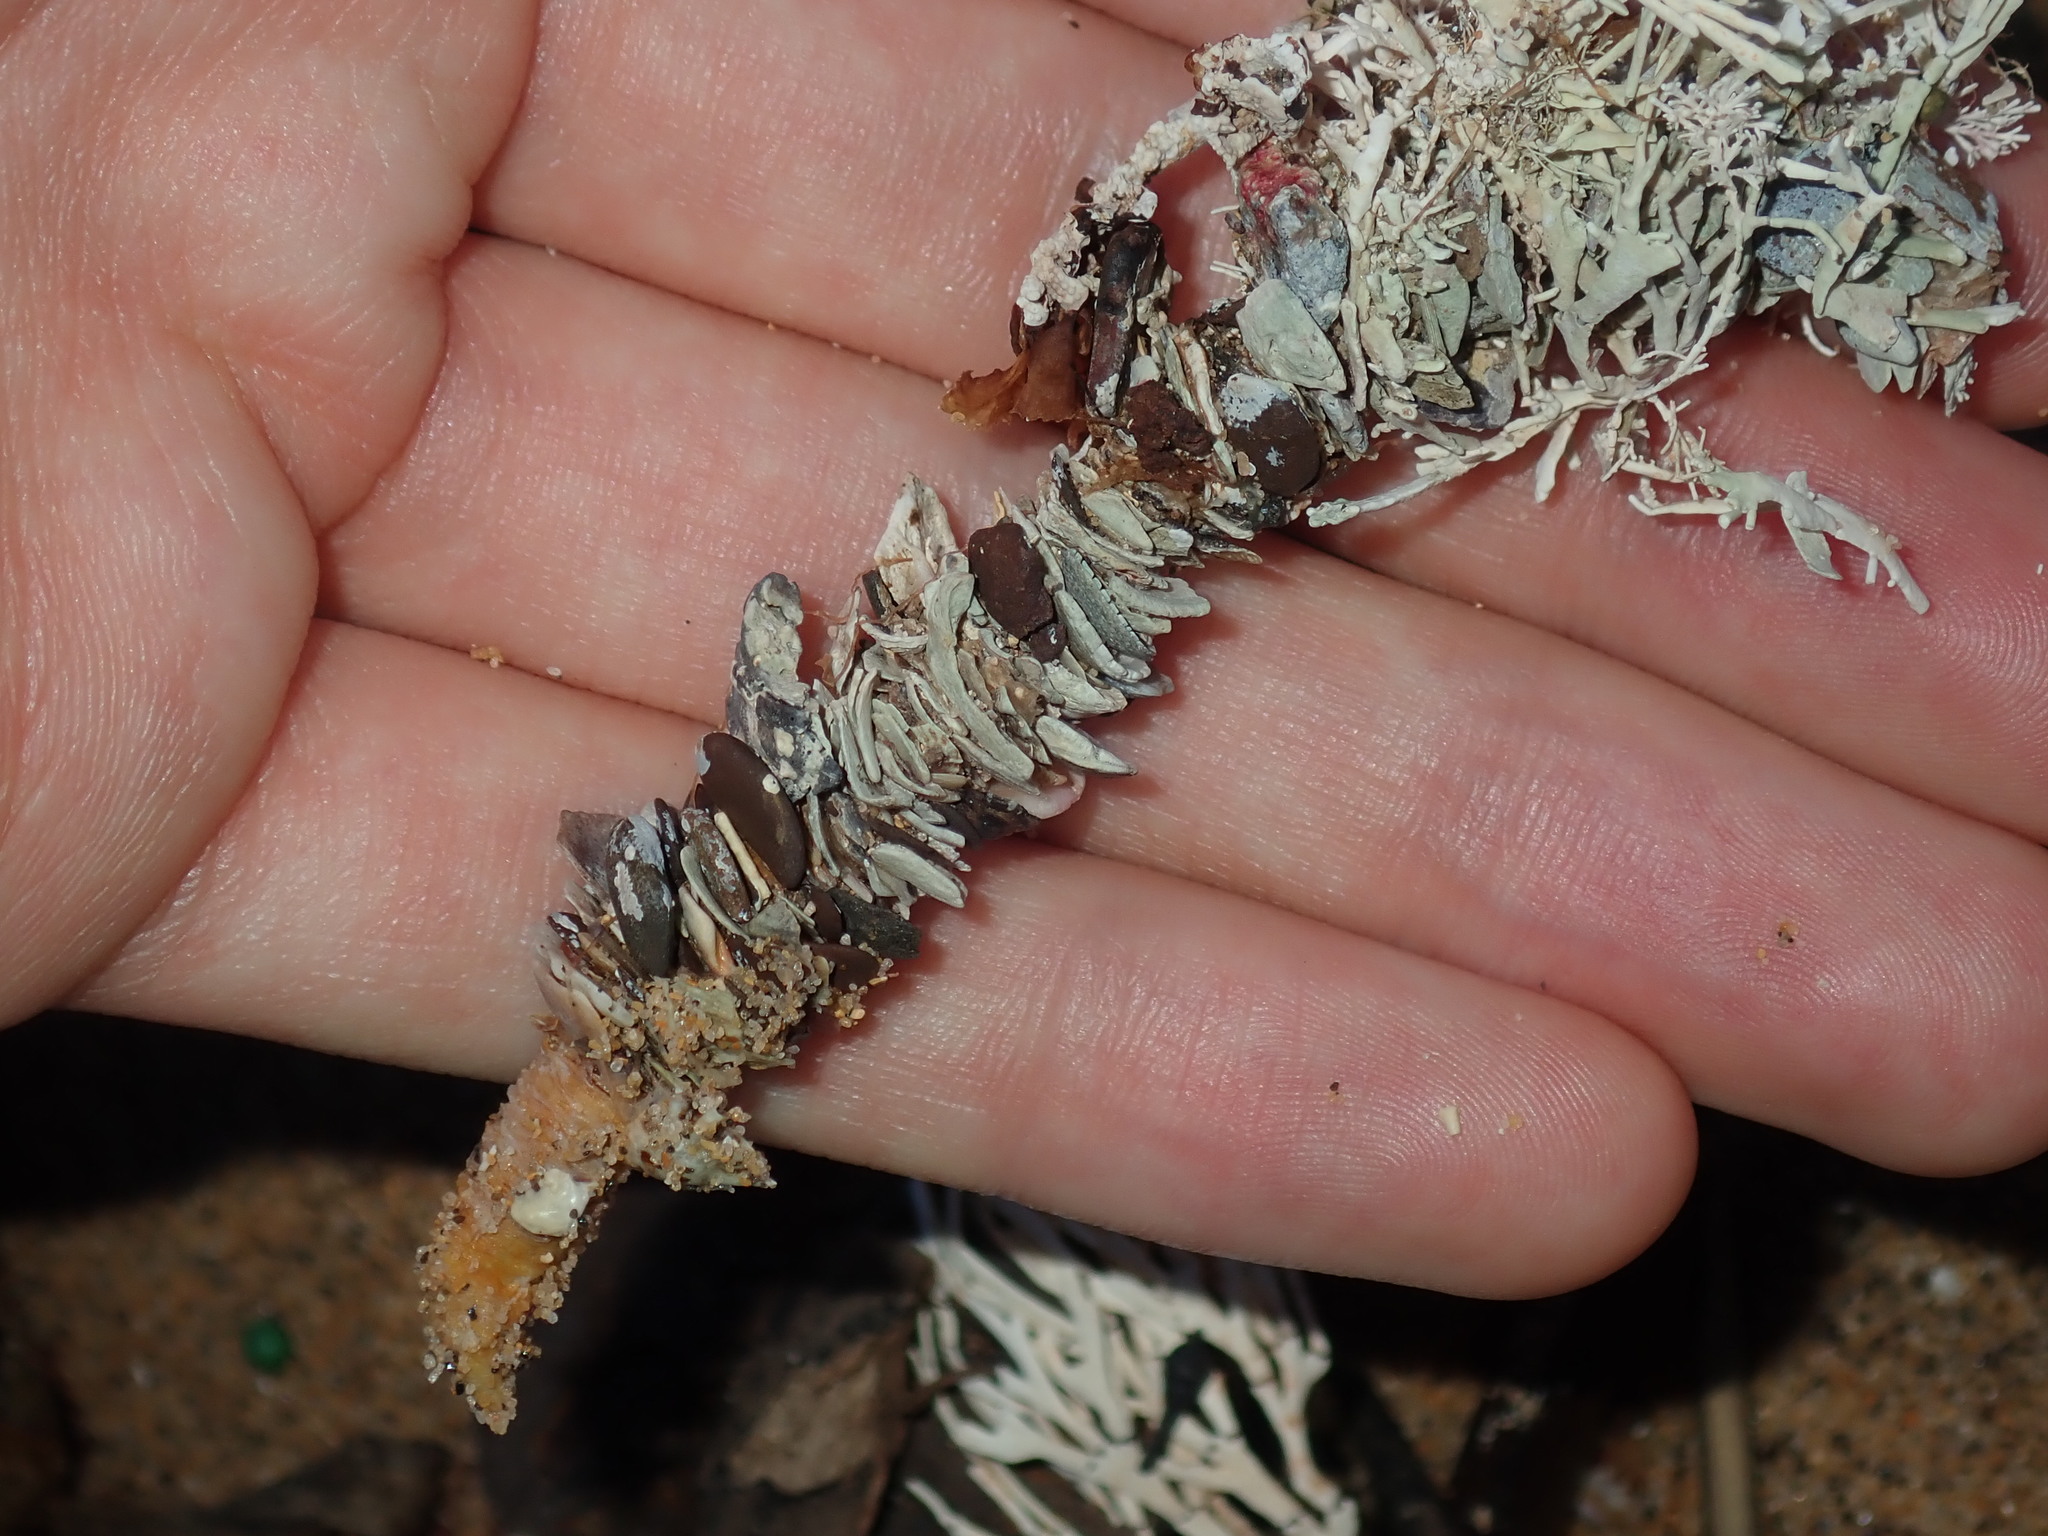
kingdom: Animalia
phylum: Annelida
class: Polychaeta
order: Eunicida
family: Onuphidae
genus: Diopatra
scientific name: Diopatra dentata
